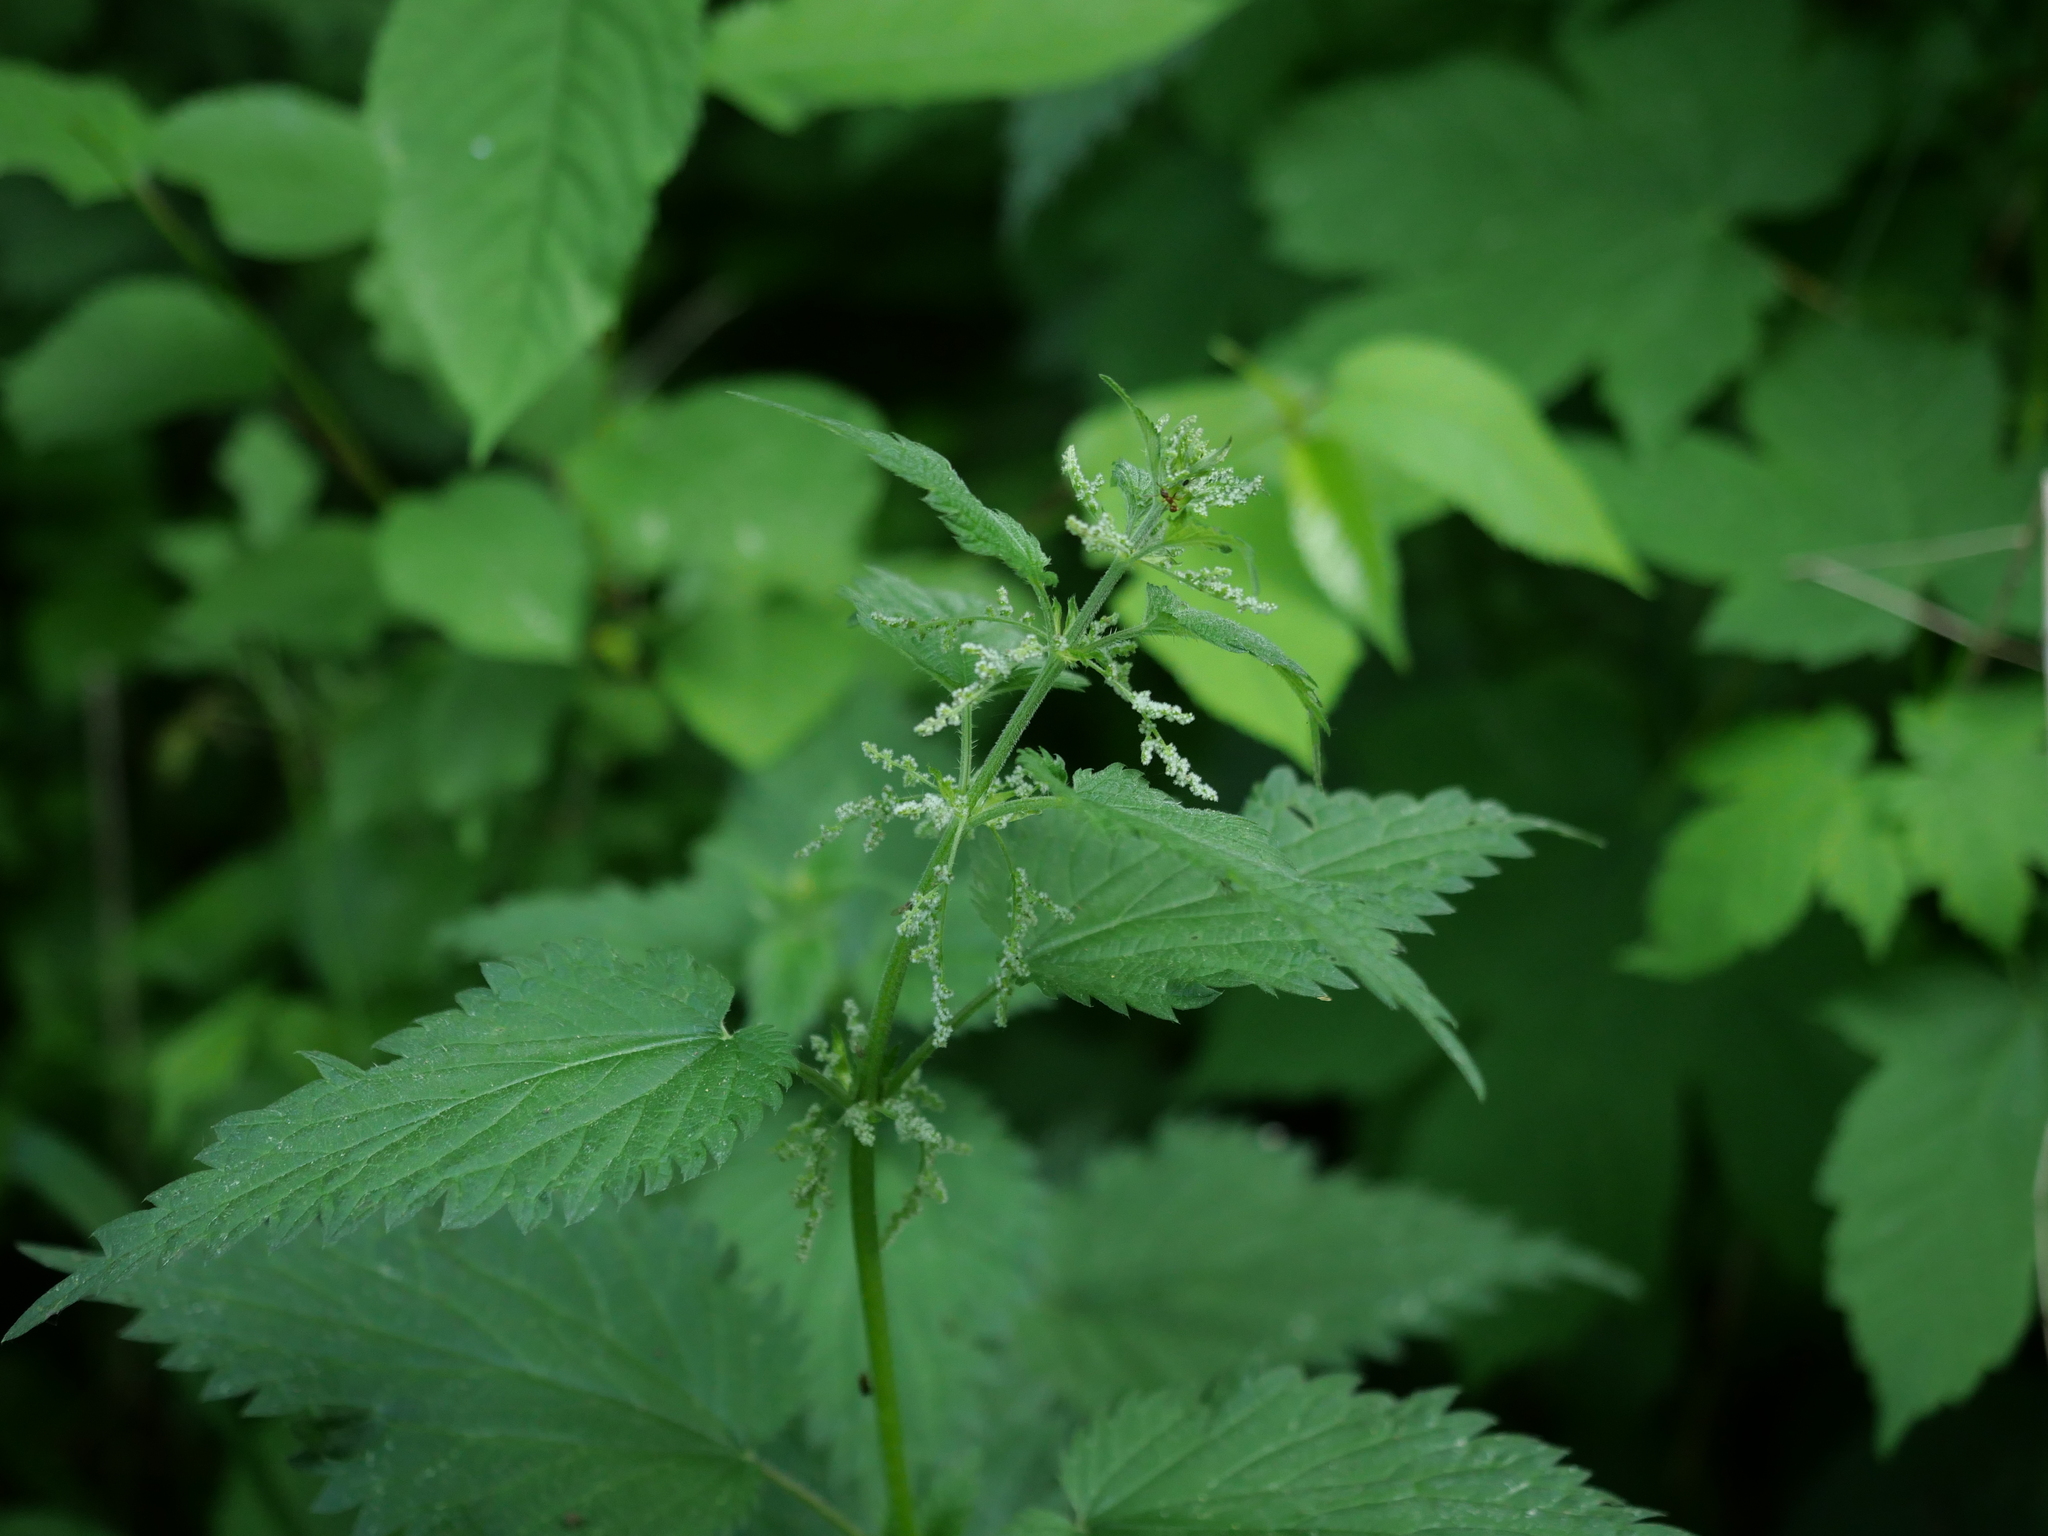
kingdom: Plantae
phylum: Tracheophyta
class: Magnoliopsida
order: Rosales
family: Urticaceae
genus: Urtica
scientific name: Urtica dioica
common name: Common nettle
